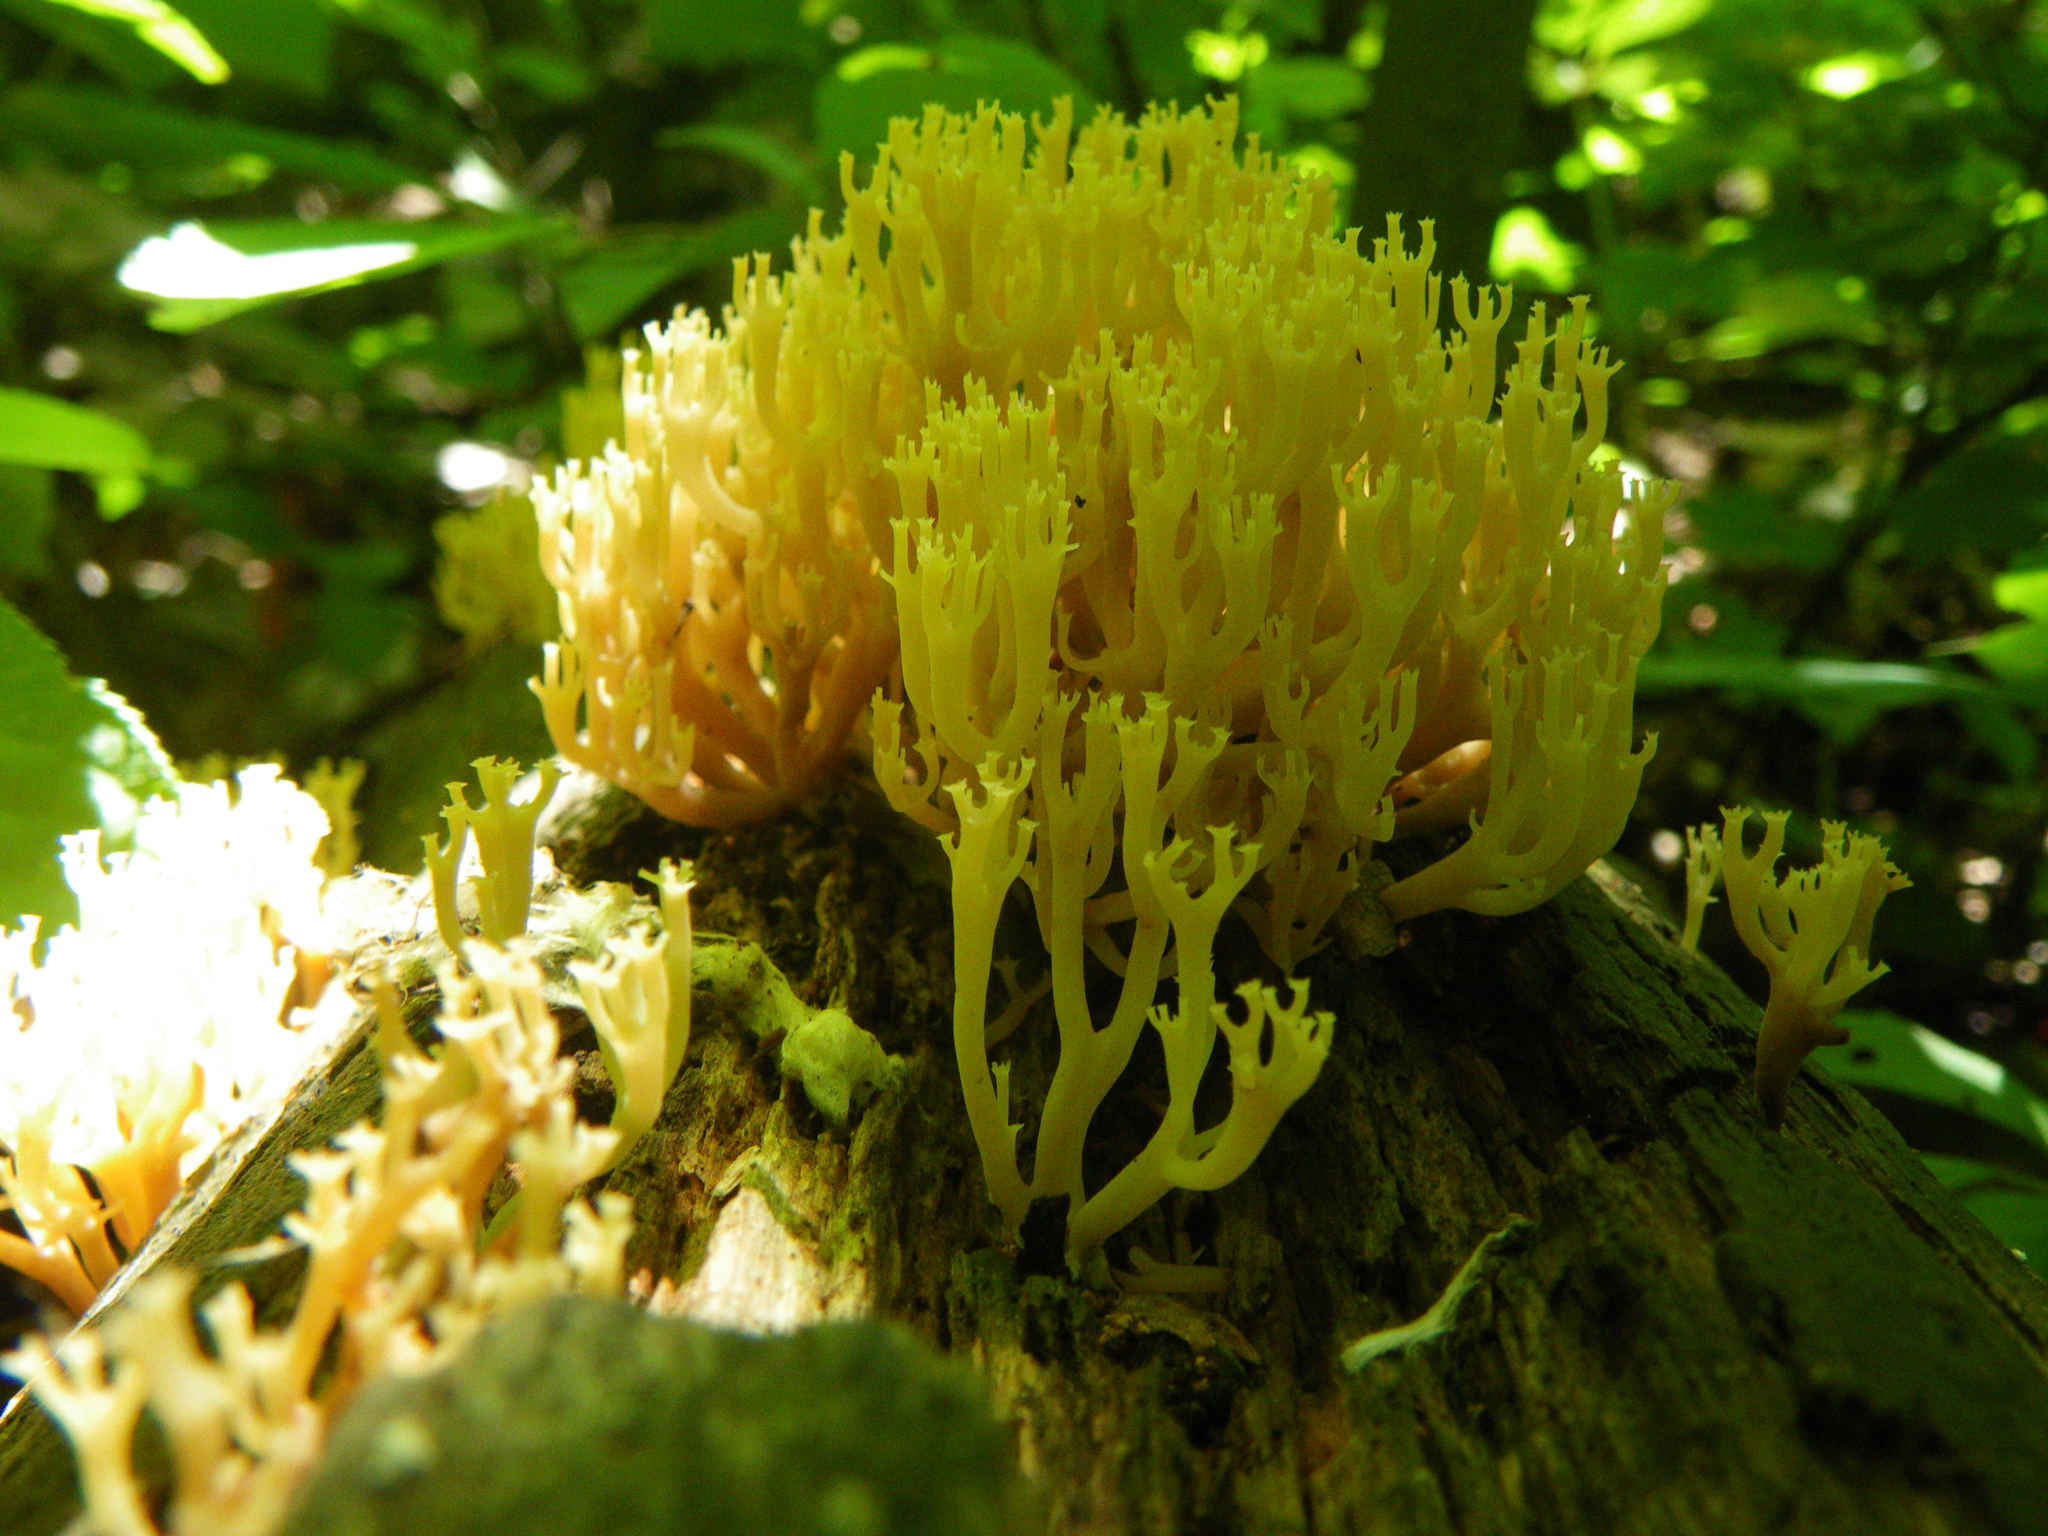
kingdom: Fungi
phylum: Basidiomycota
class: Agaricomycetes
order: Russulales
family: Auriscalpiaceae
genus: Artomyces
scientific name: Artomyces pyxidatus
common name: Crown-tipped coral fungus
